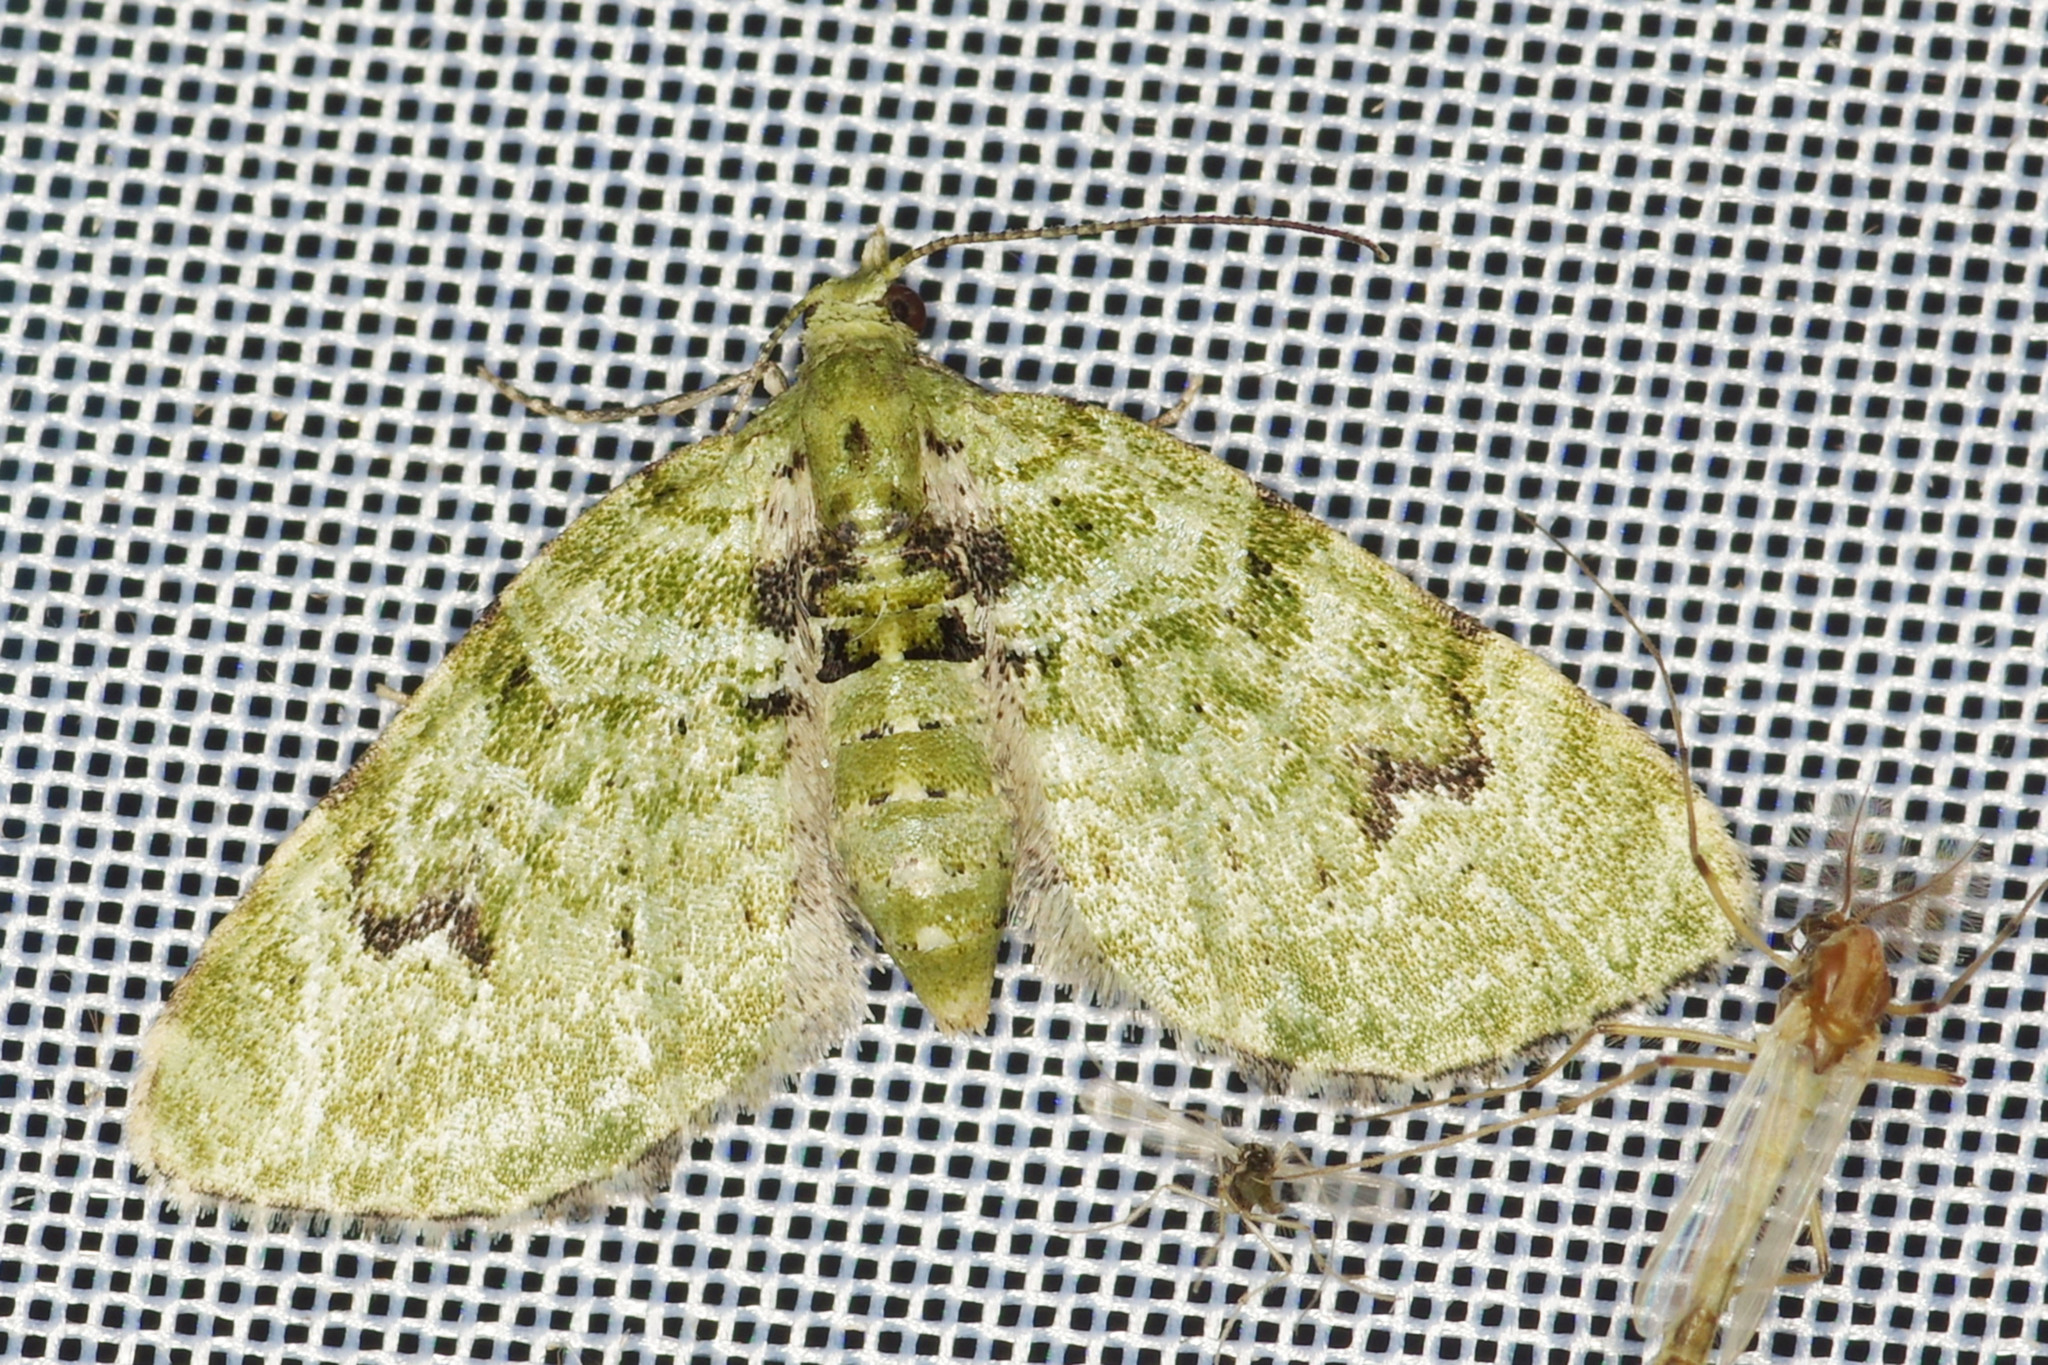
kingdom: Animalia
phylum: Arthropoda
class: Insecta
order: Lepidoptera
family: Geometridae
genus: Chloroclystis
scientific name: Chloroclystis v-ata
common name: V-pug
